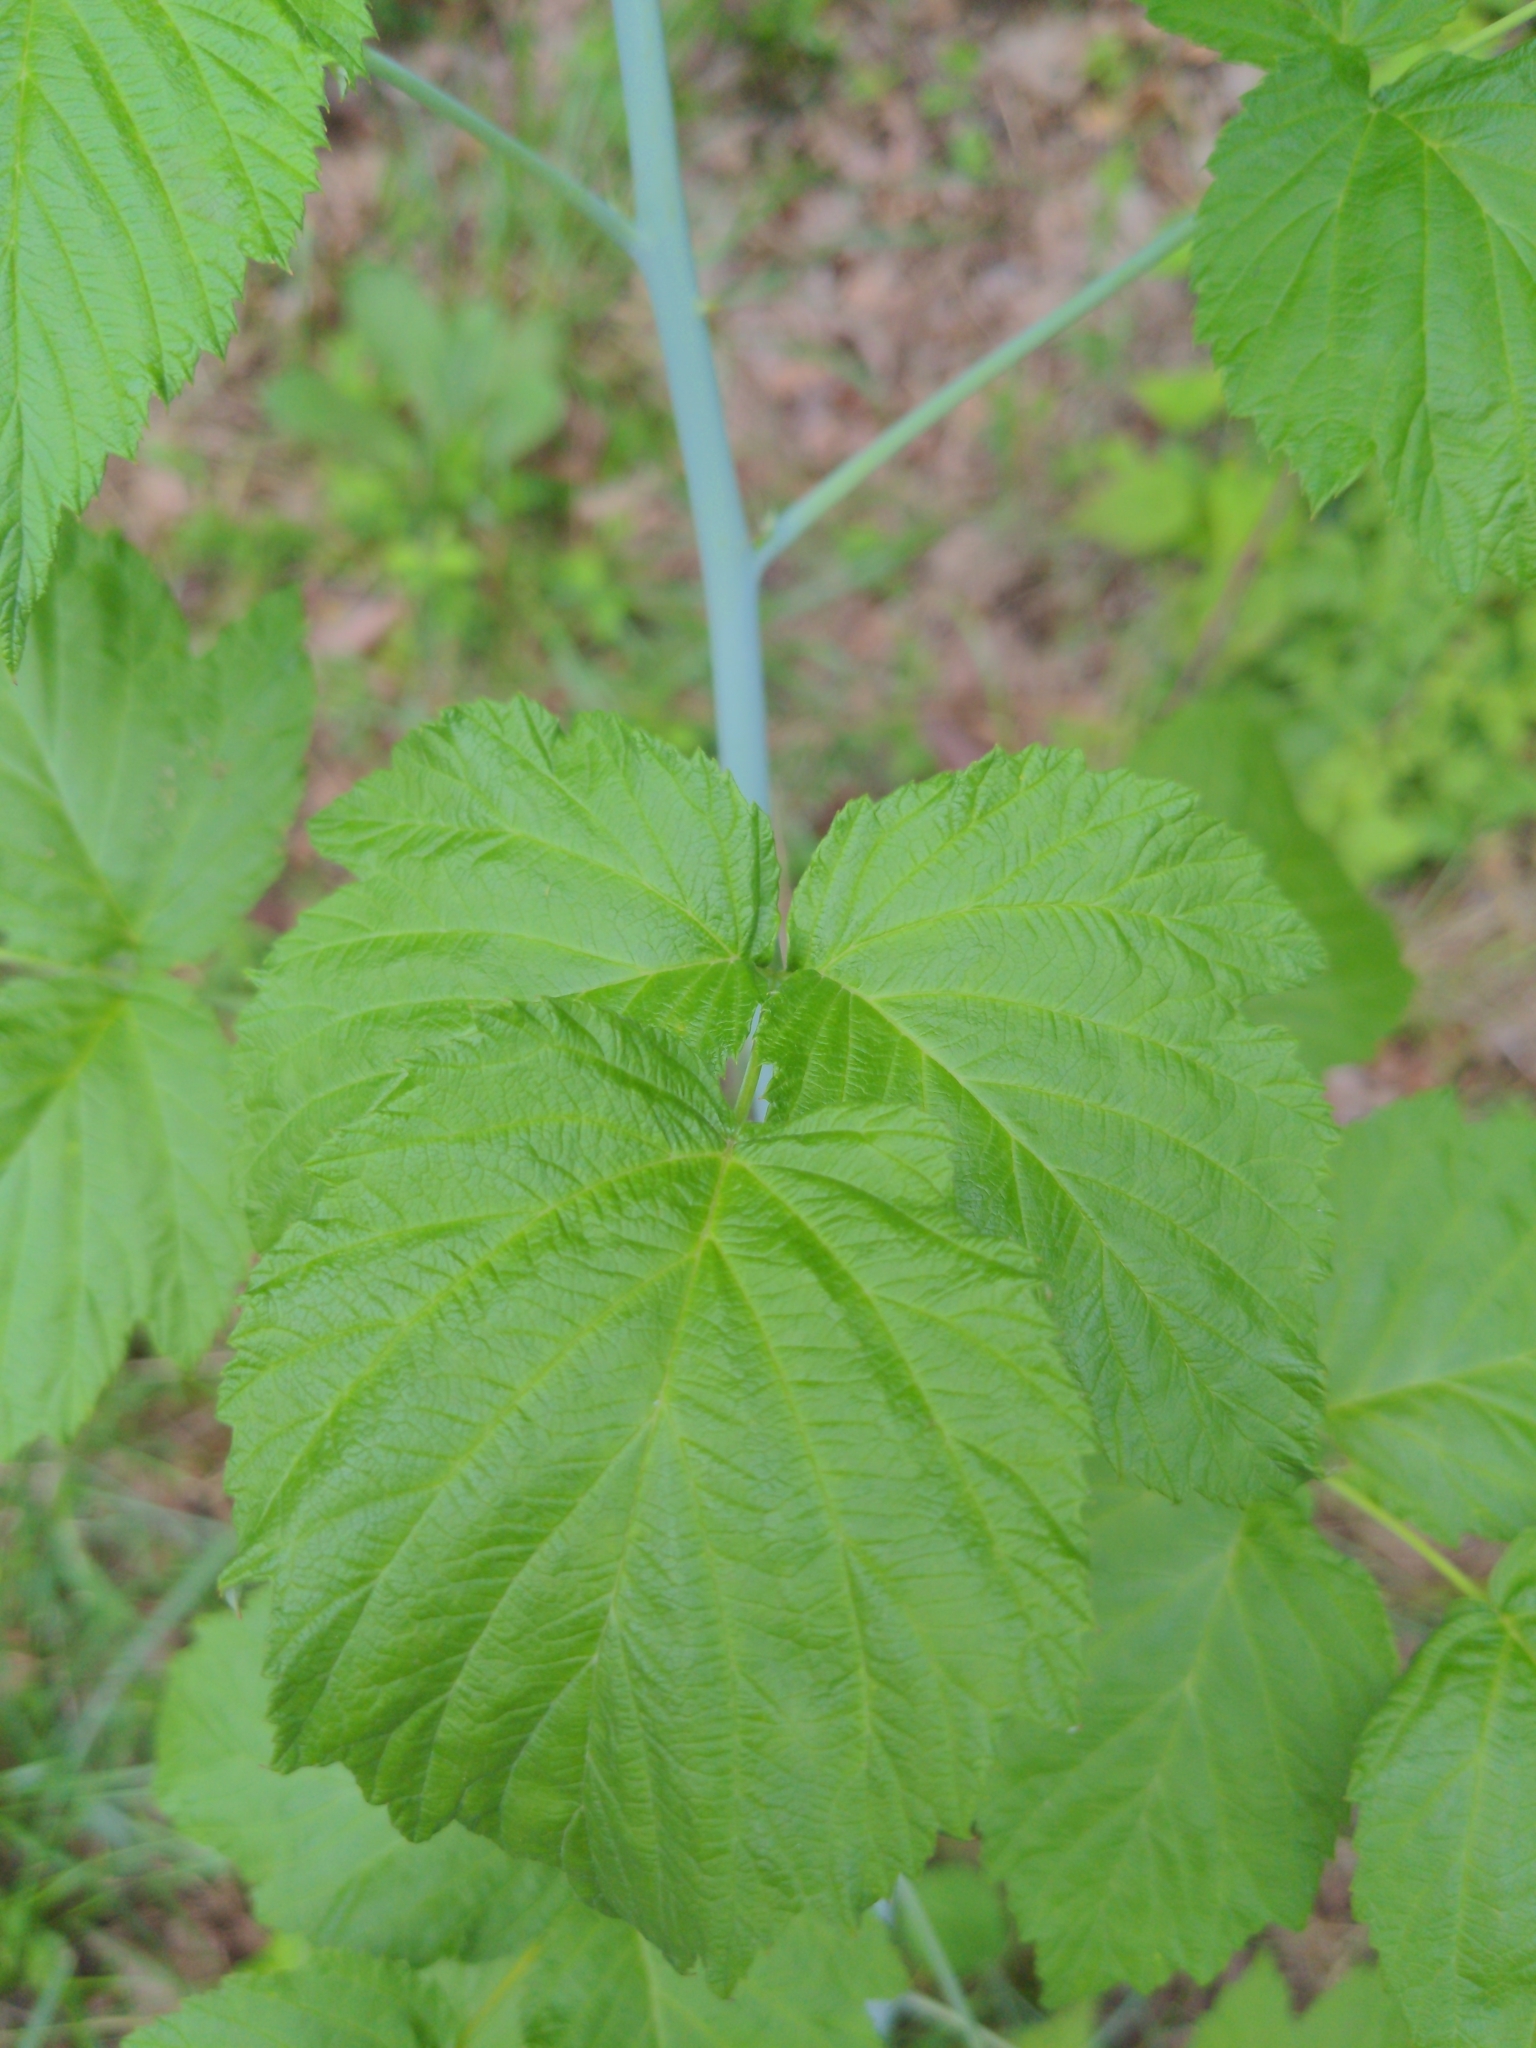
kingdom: Plantae
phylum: Tracheophyta
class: Magnoliopsida
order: Rosales
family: Rosaceae
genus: Rubus
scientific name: Rubus idaeus
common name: Raspberry
